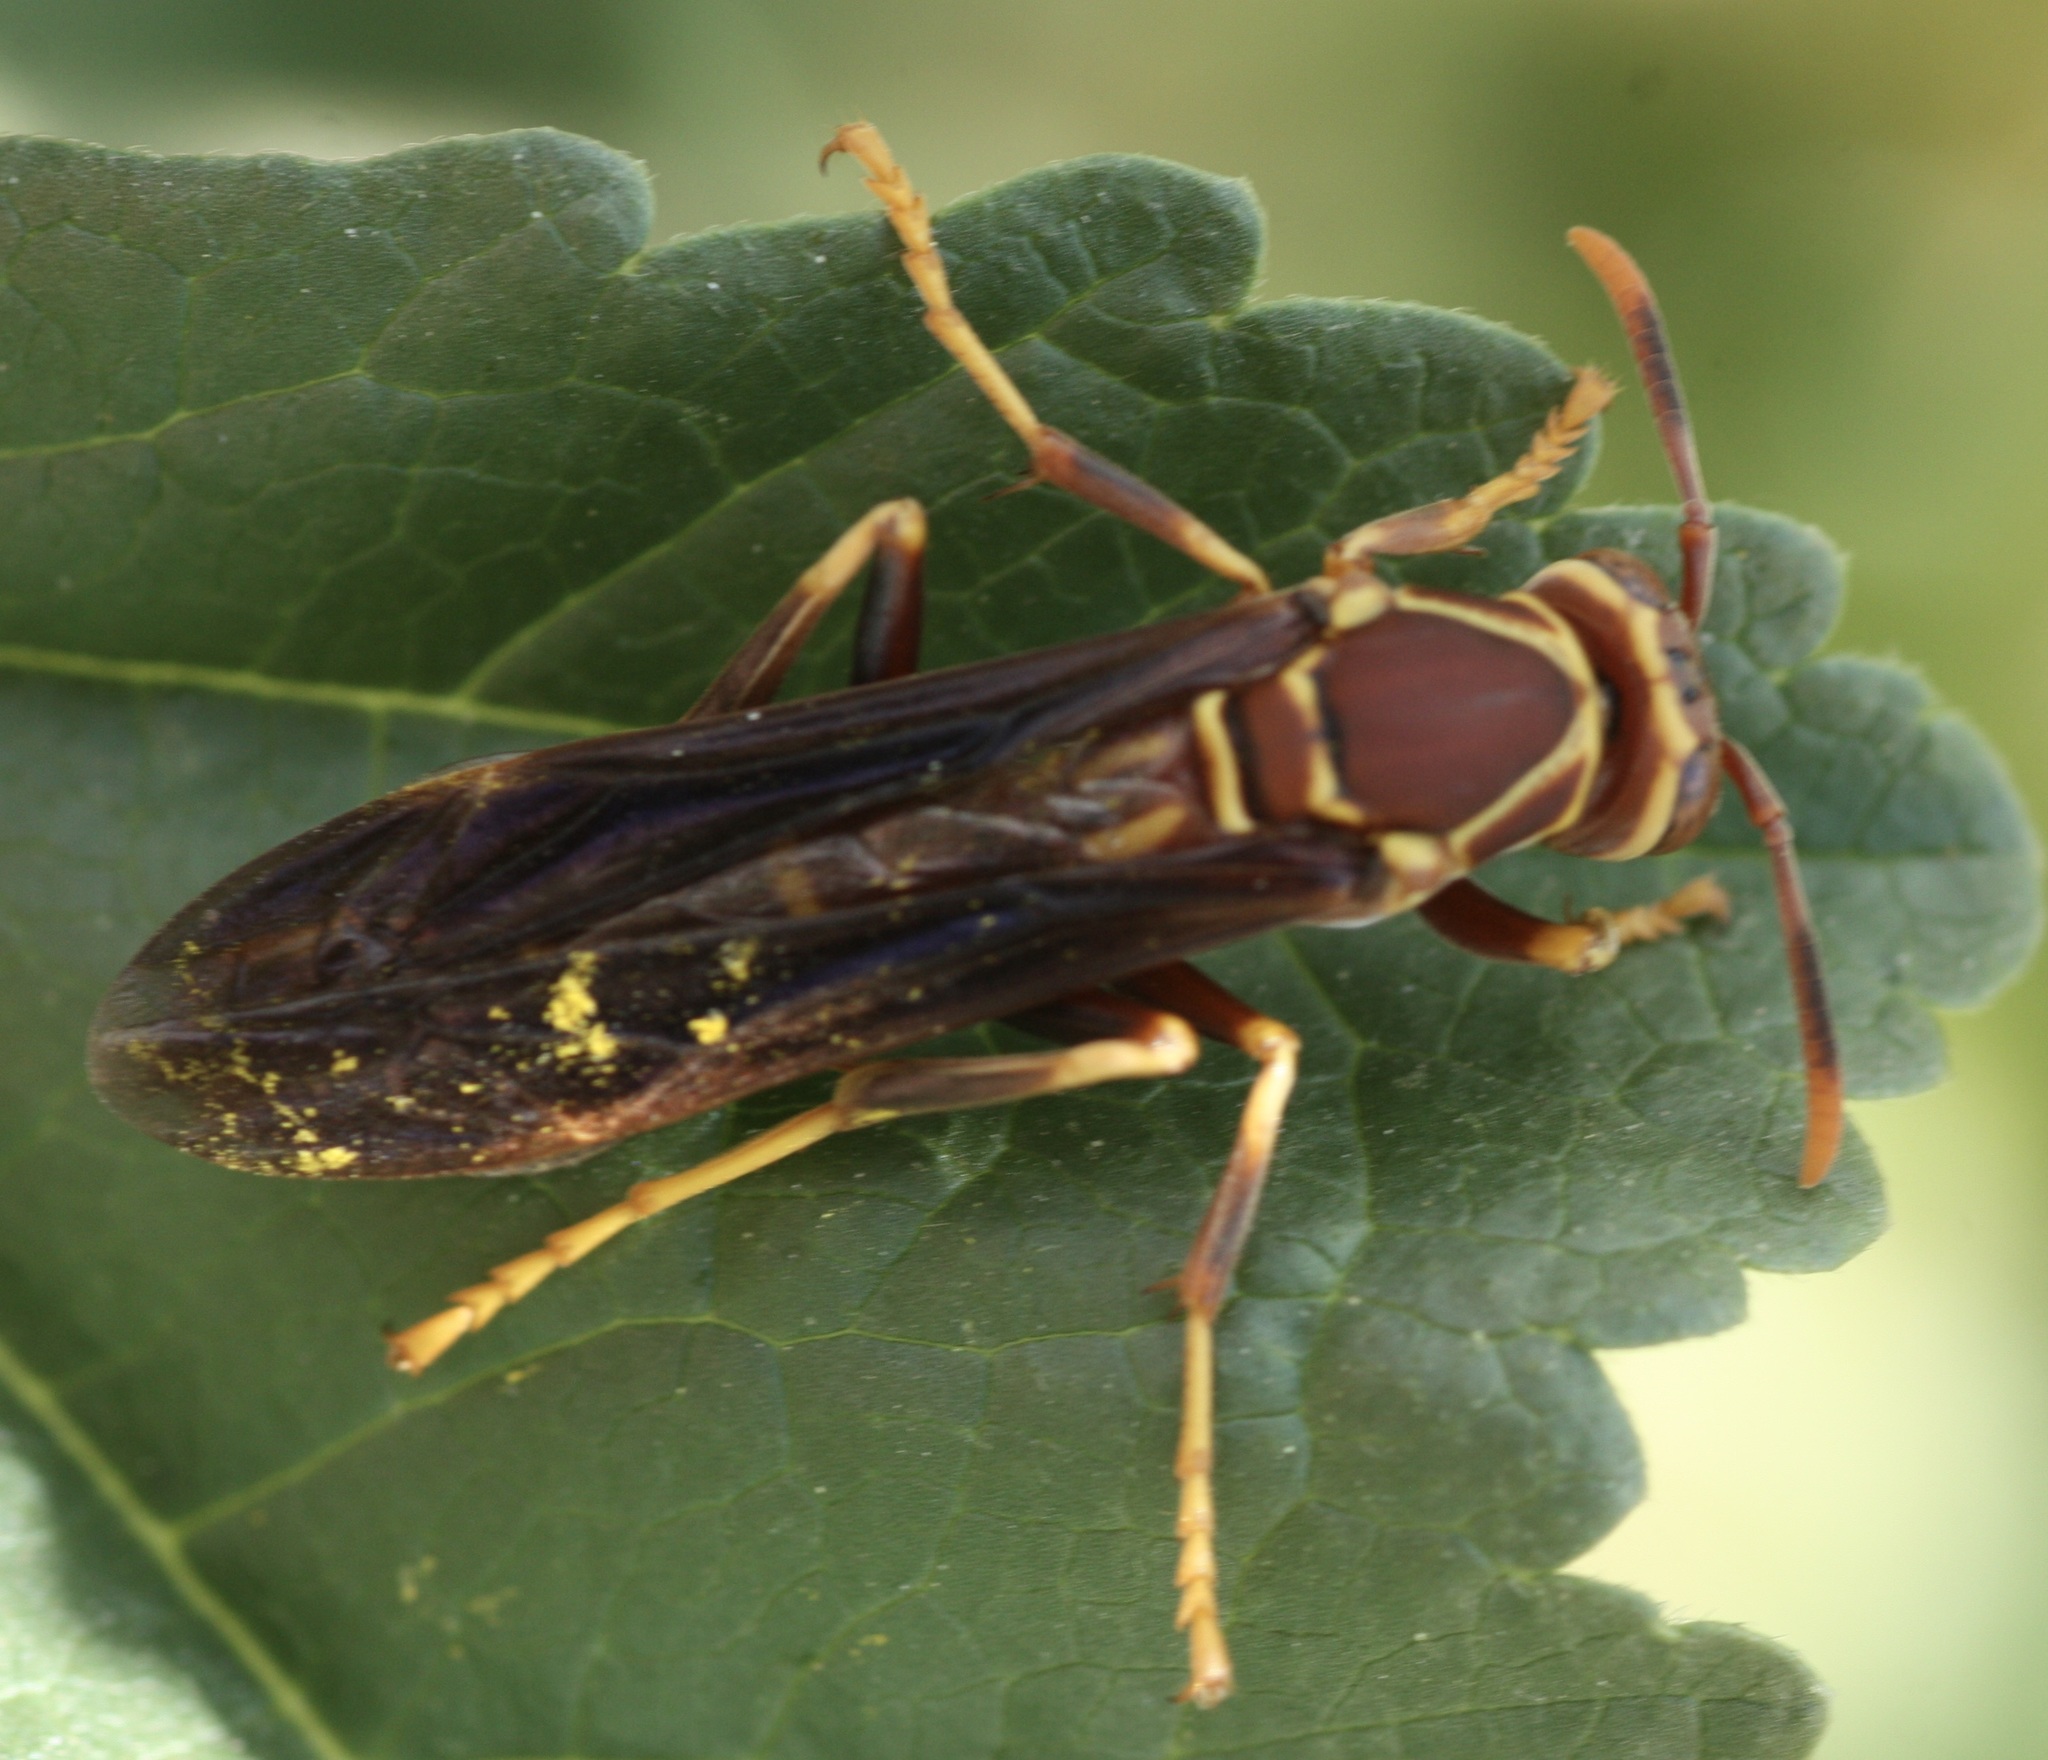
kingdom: Animalia
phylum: Arthropoda
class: Insecta
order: Hymenoptera
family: Eumenidae
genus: Polistes
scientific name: Polistes arizonensis
